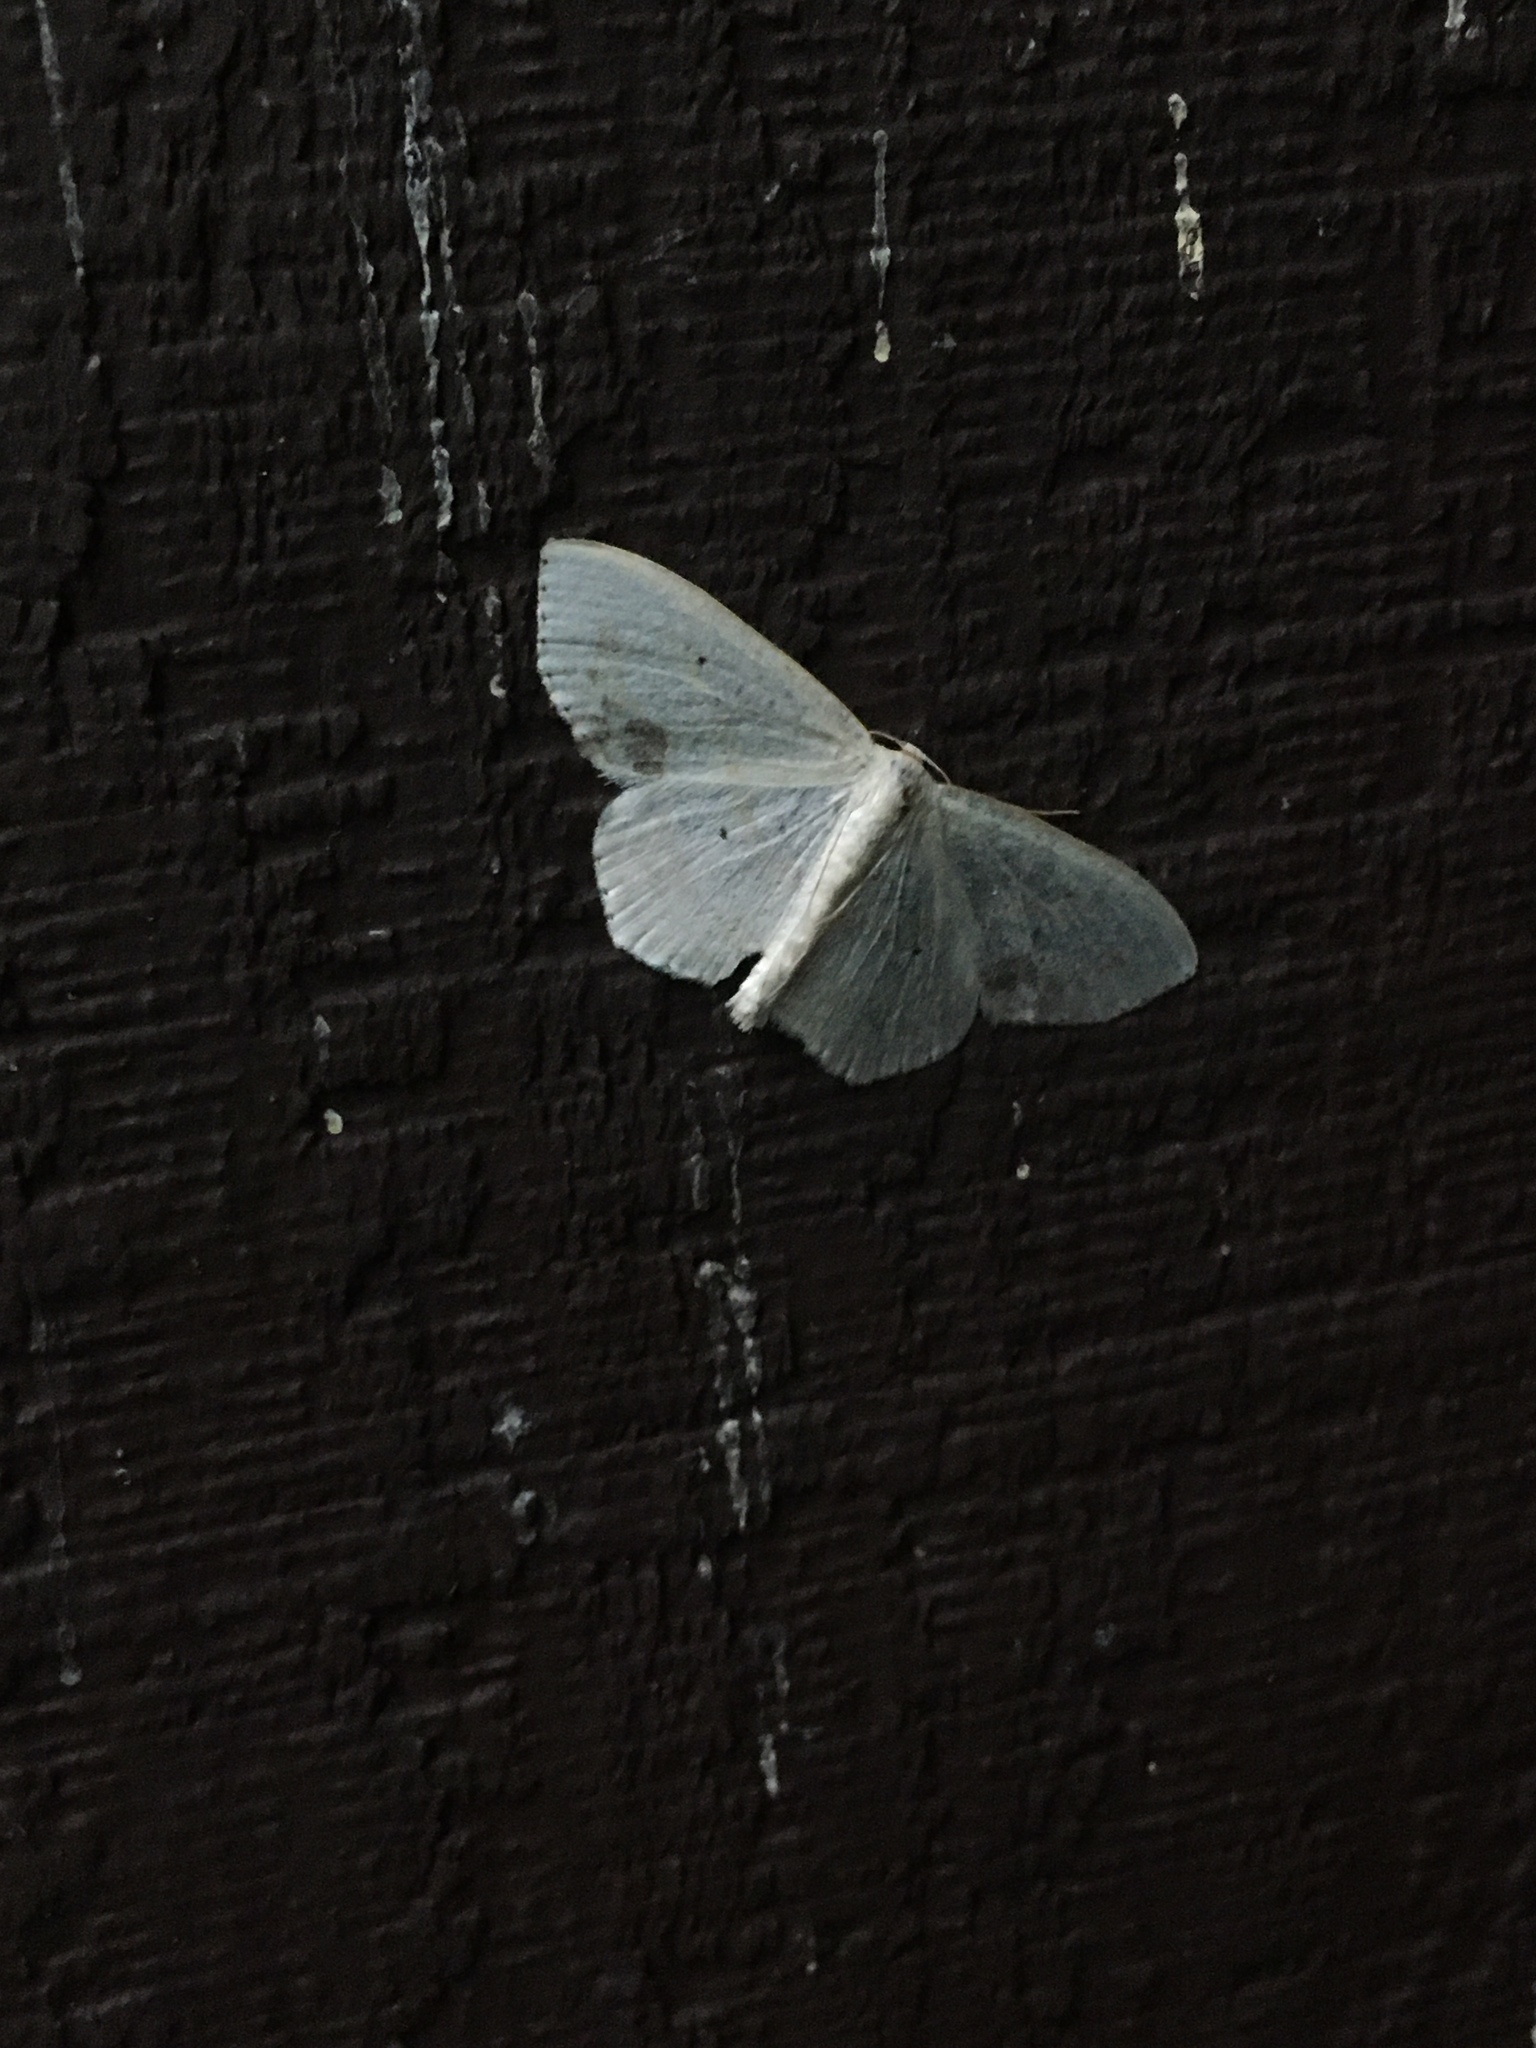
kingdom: Animalia
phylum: Arthropoda
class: Insecta
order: Lepidoptera
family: Geometridae
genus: Scopula
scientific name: Scopula limboundata
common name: Large lace border
